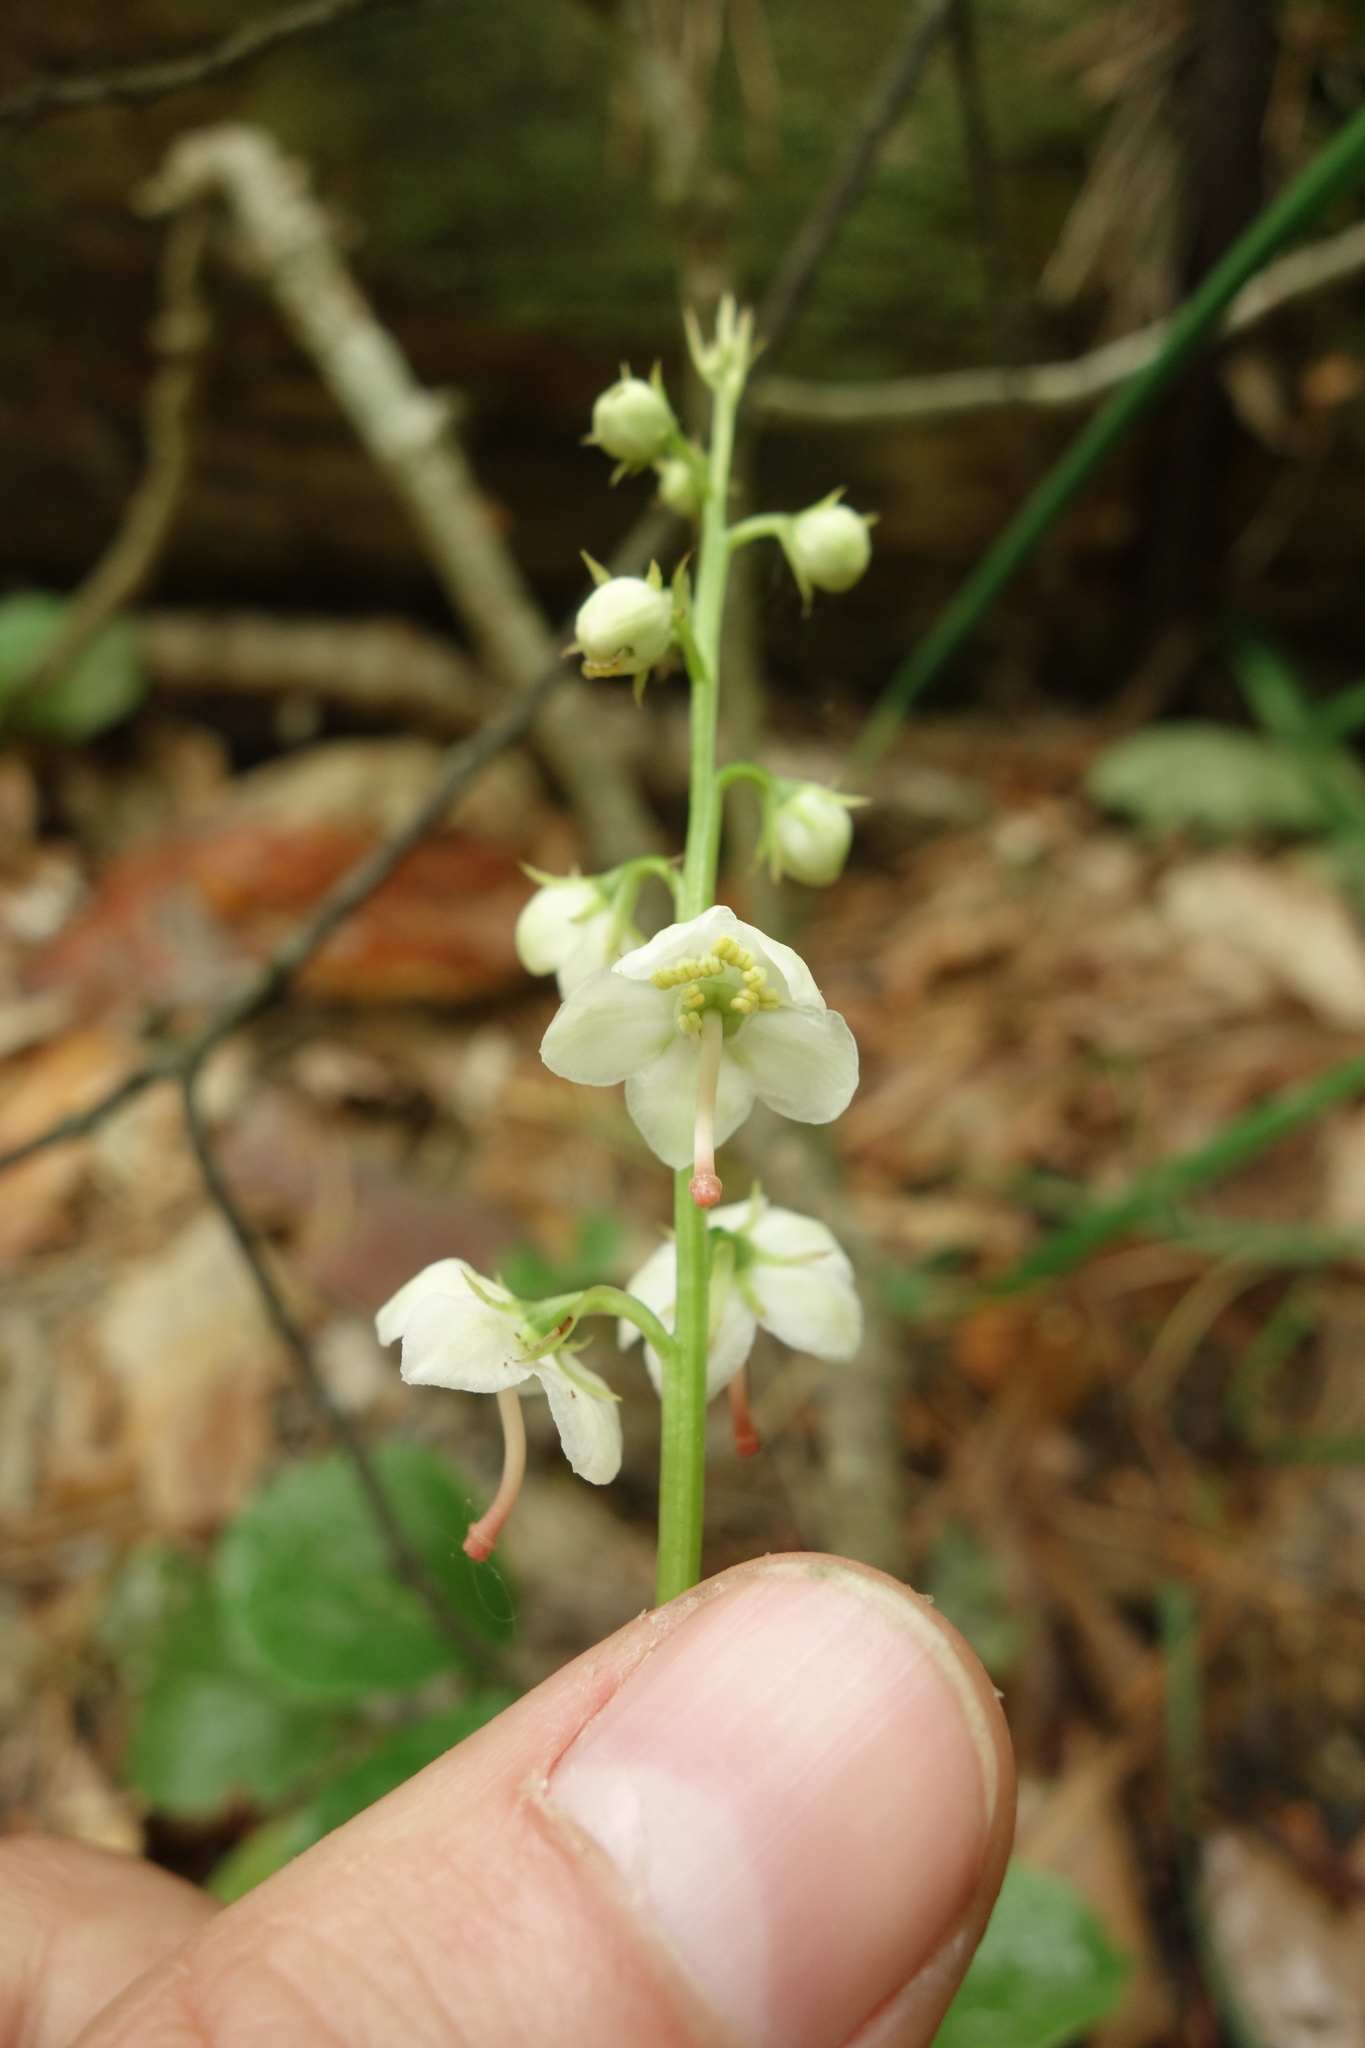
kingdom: Plantae
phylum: Tracheophyta
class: Magnoliopsida
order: Ericales
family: Ericaceae
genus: Pyrola
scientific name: Pyrola rotundifolia
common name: Round-leaved wintergreen
